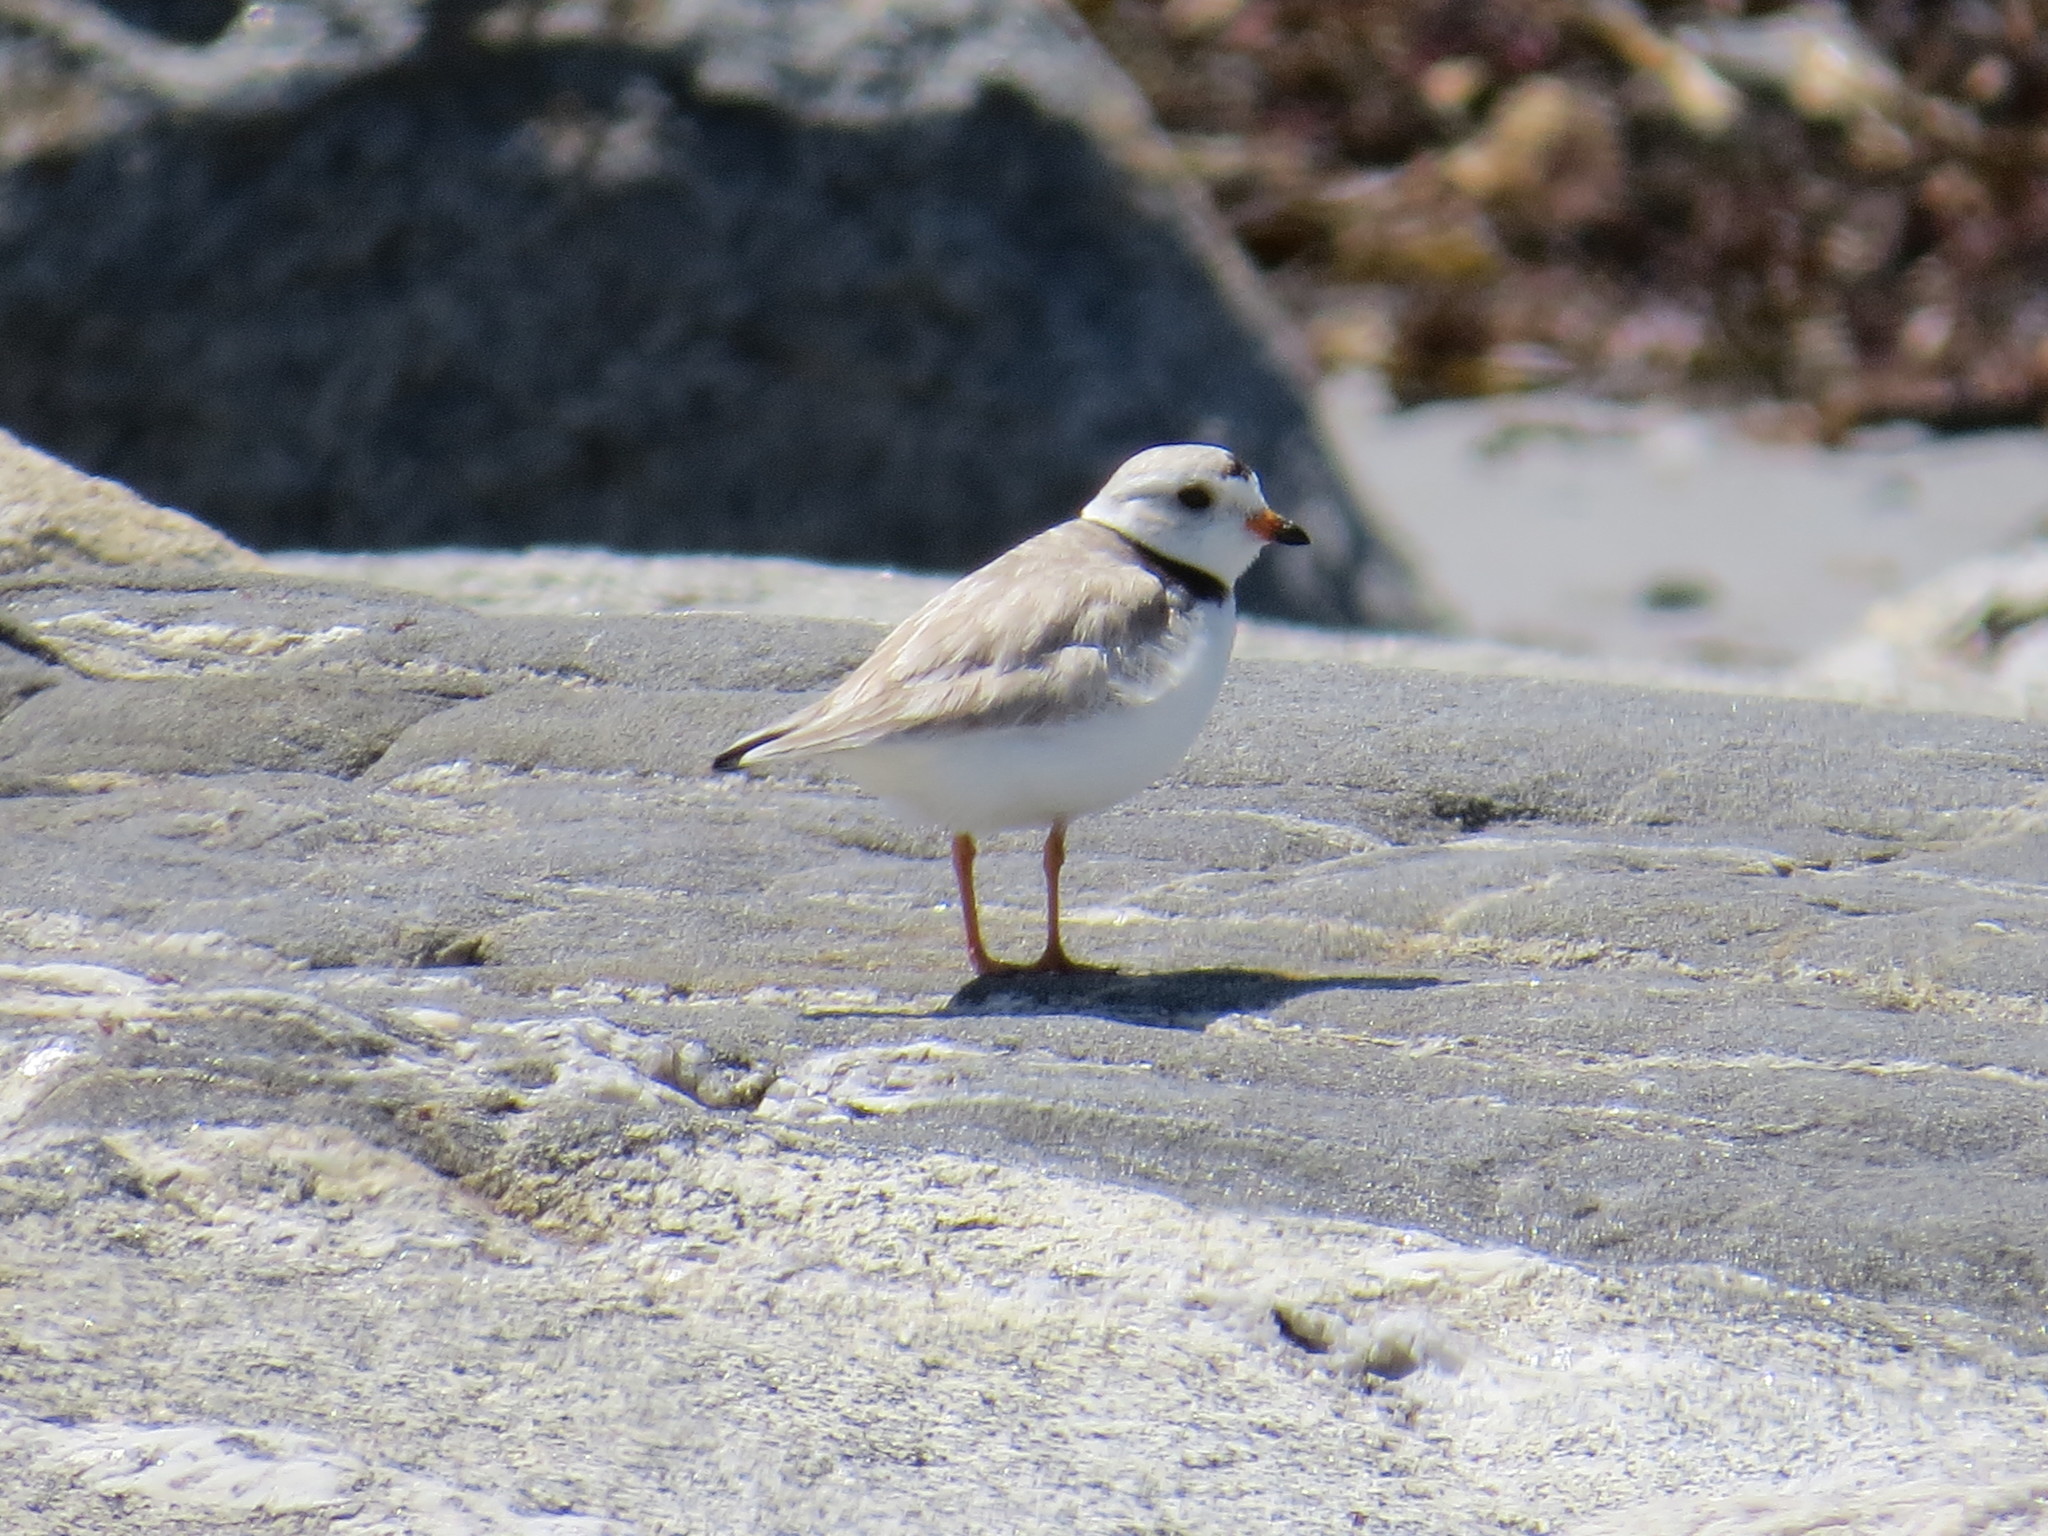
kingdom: Animalia
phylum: Chordata
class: Aves
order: Charadriiformes
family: Charadriidae
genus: Charadrius
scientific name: Charadrius melodus
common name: Piping plover
